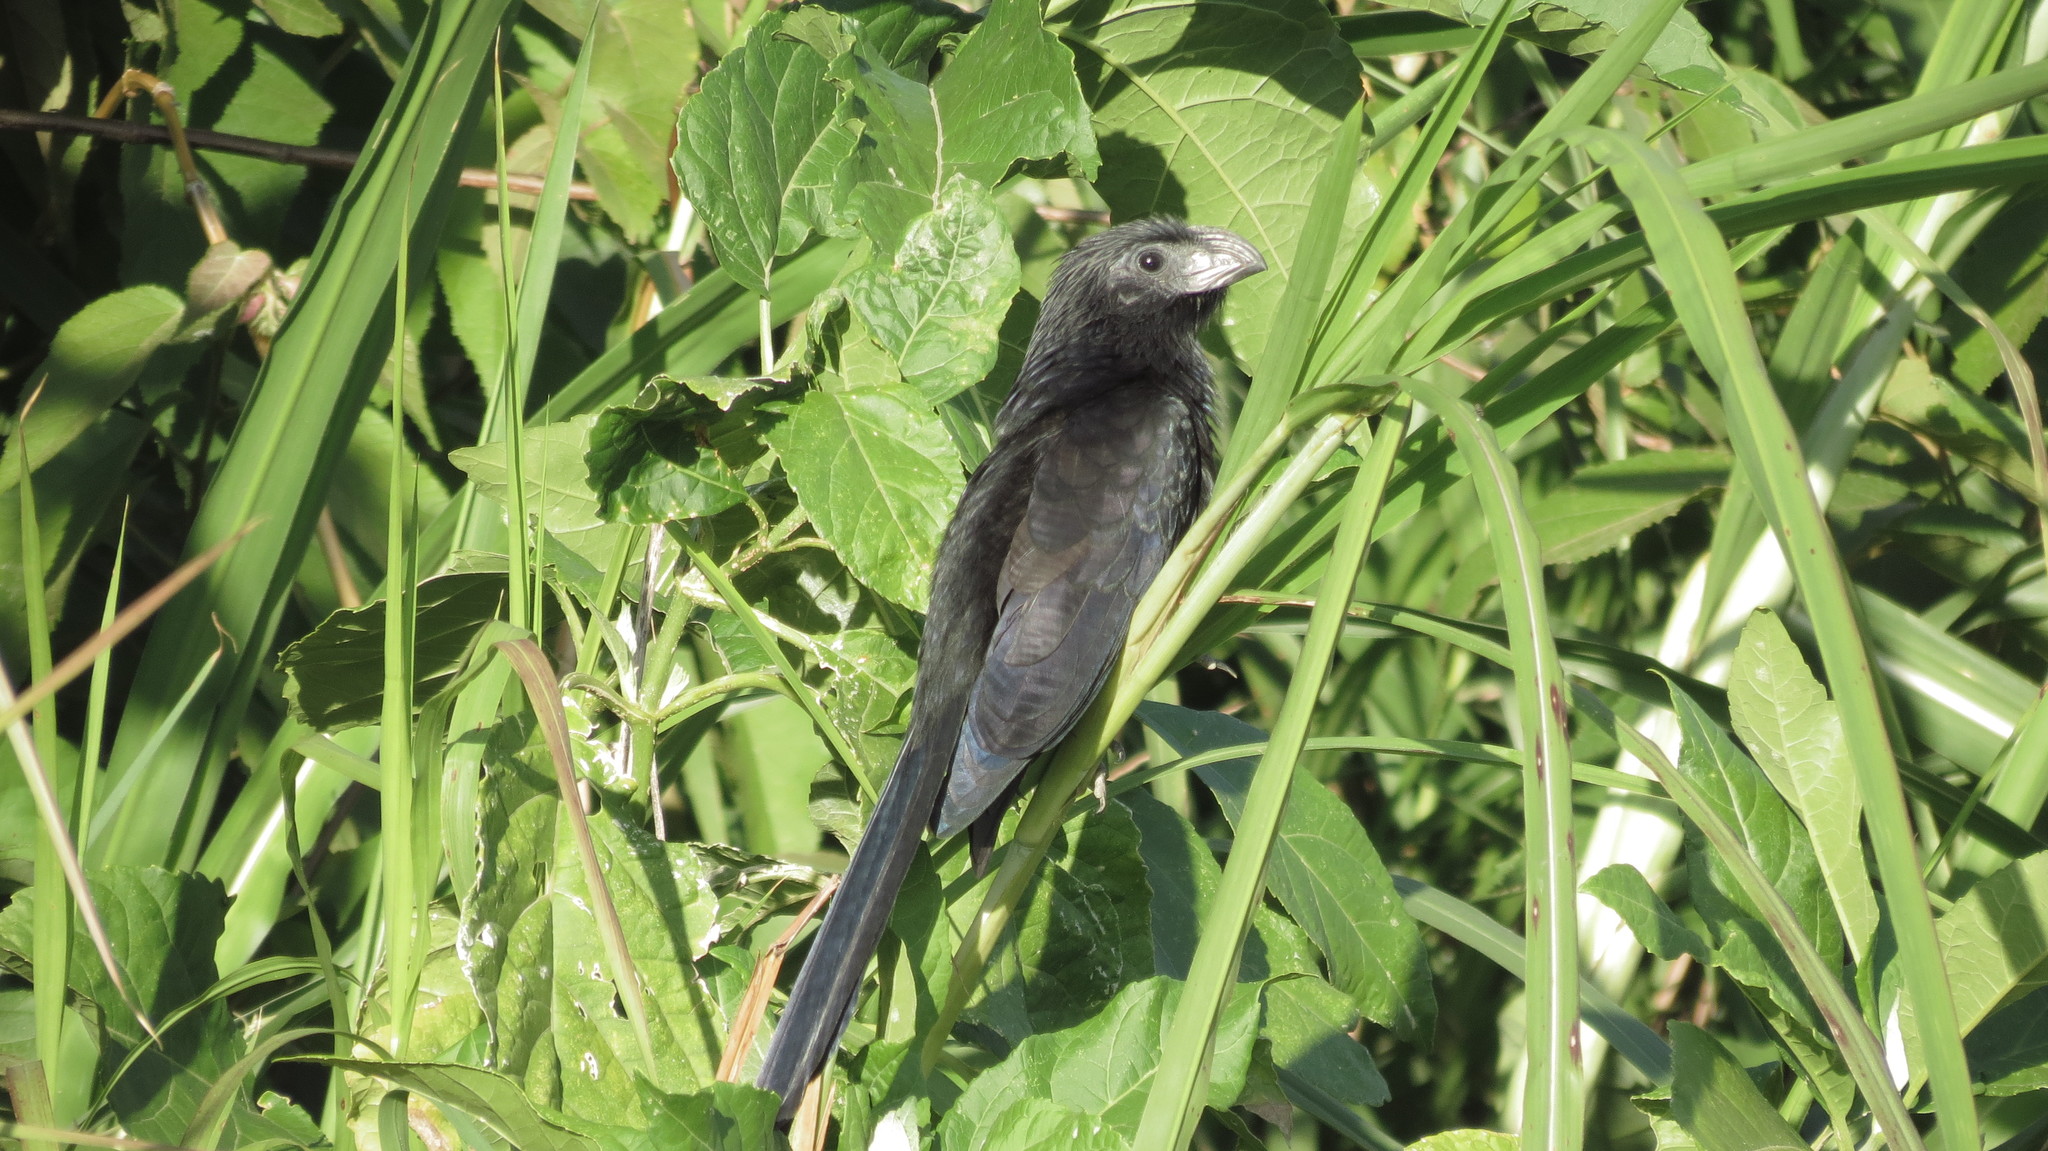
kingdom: Animalia
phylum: Chordata
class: Aves
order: Cuculiformes
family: Cuculidae
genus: Crotophaga
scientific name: Crotophaga sulcirostris
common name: Groove-billed ani
